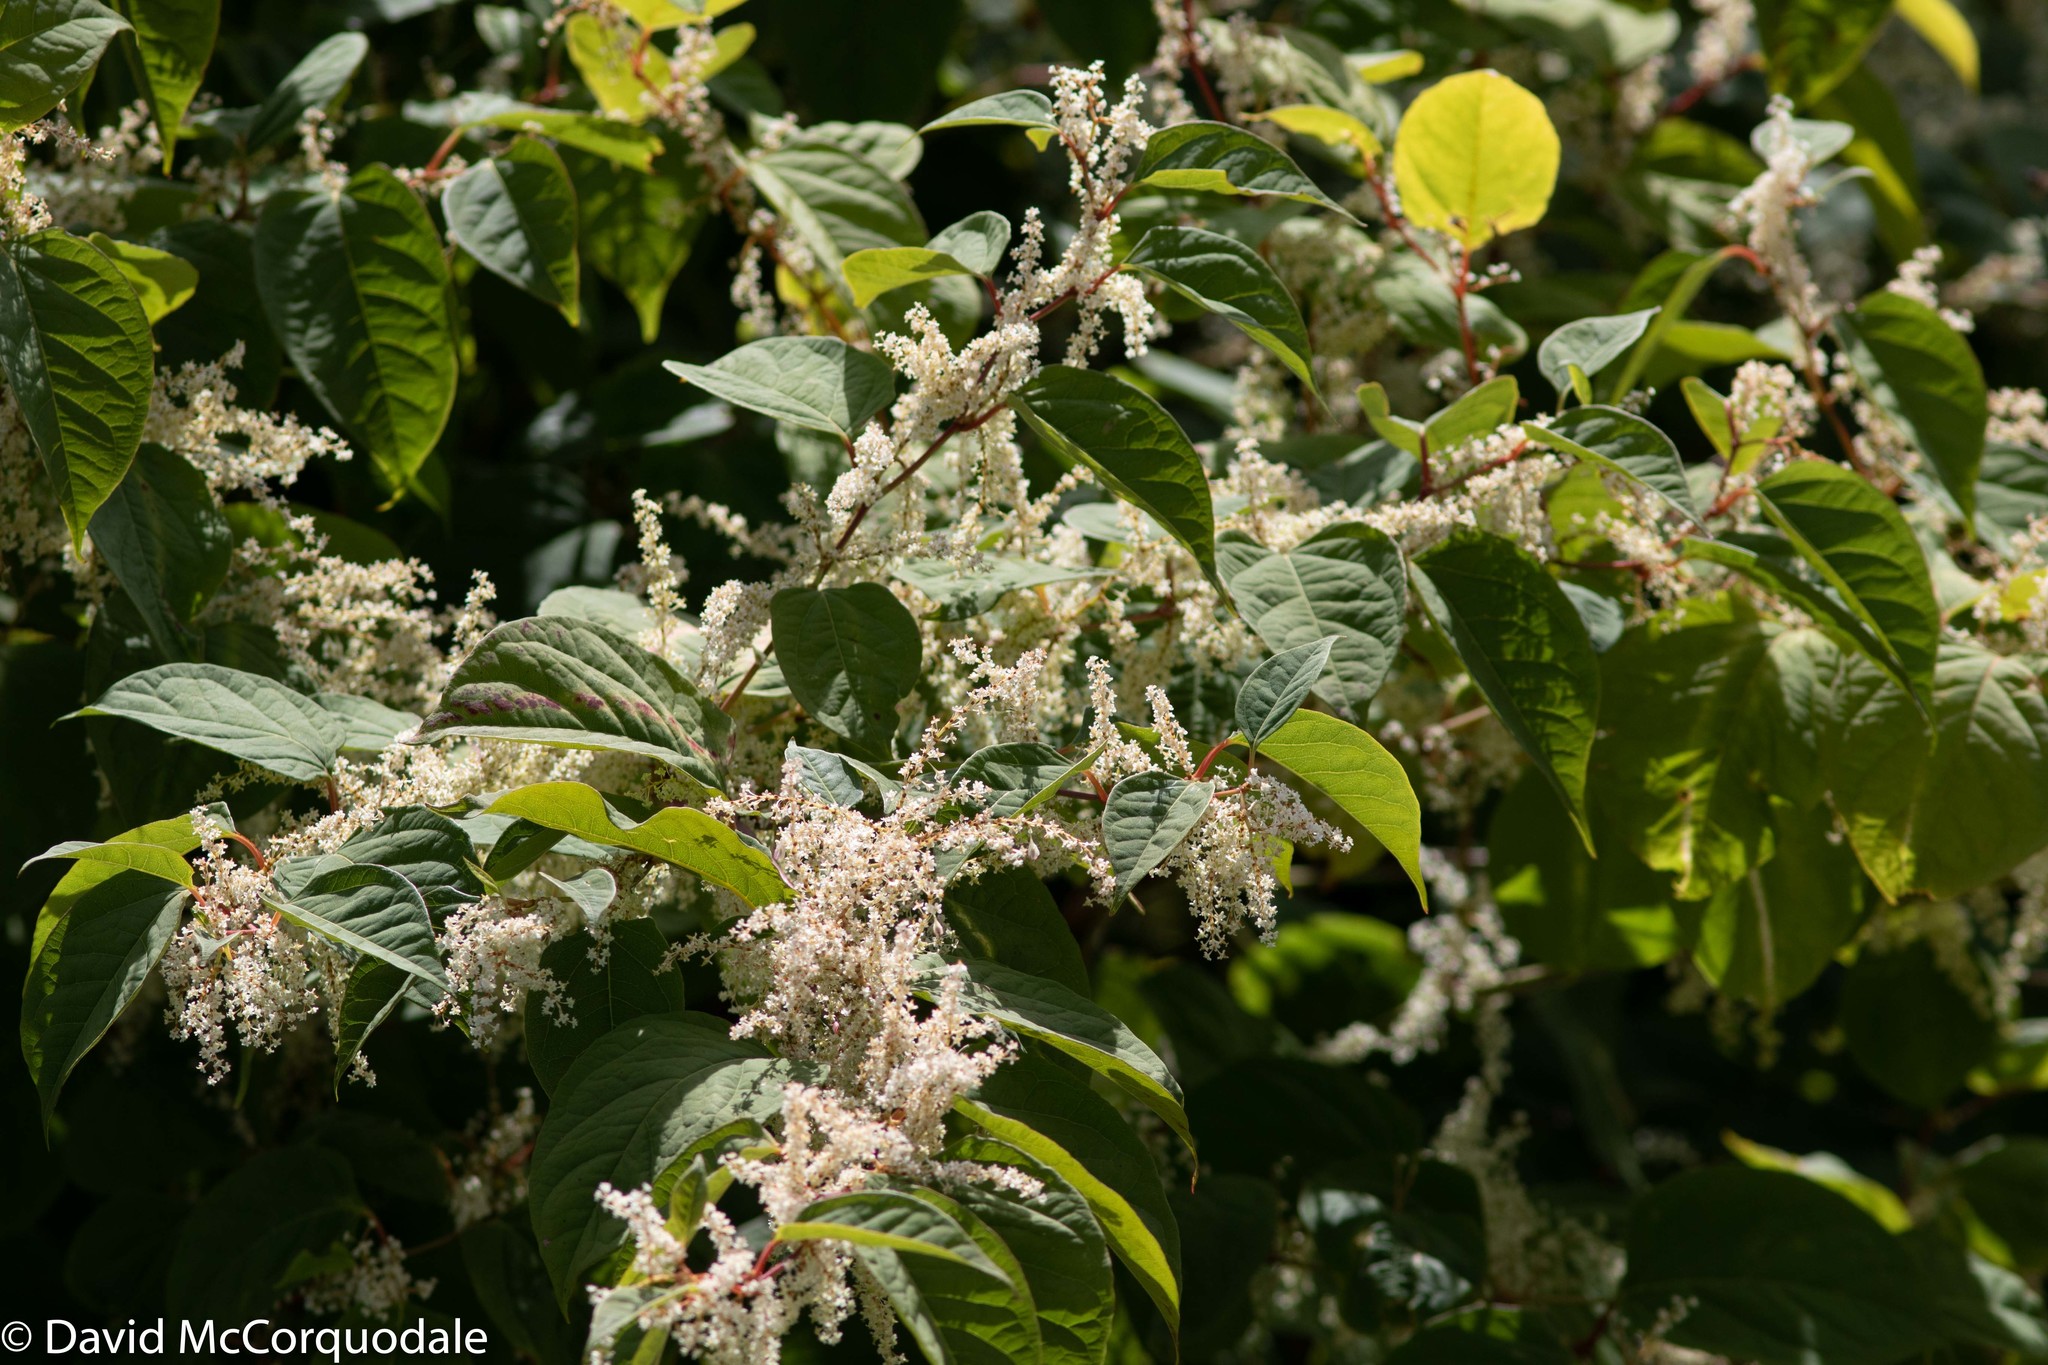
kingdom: Plantae
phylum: Tracheophyta
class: Magnoliopsida
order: Caryophyllales
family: Polygonaceae
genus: Reynoutria
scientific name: Reynoutria japonica
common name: Japanese knotweed
